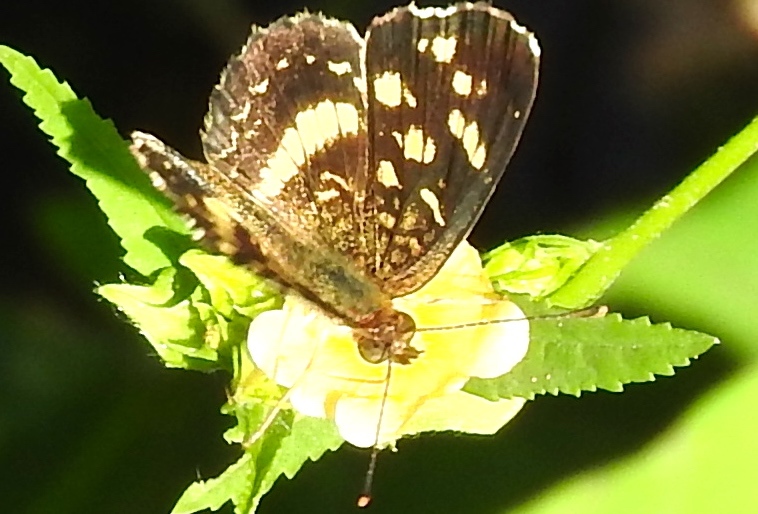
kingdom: Animalia
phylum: Arthropoda
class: Insecta
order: Lepidoptera
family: Nymphalidae
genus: Anthanassa
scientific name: Anthanassa tulcis
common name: Pale-banded crescent
